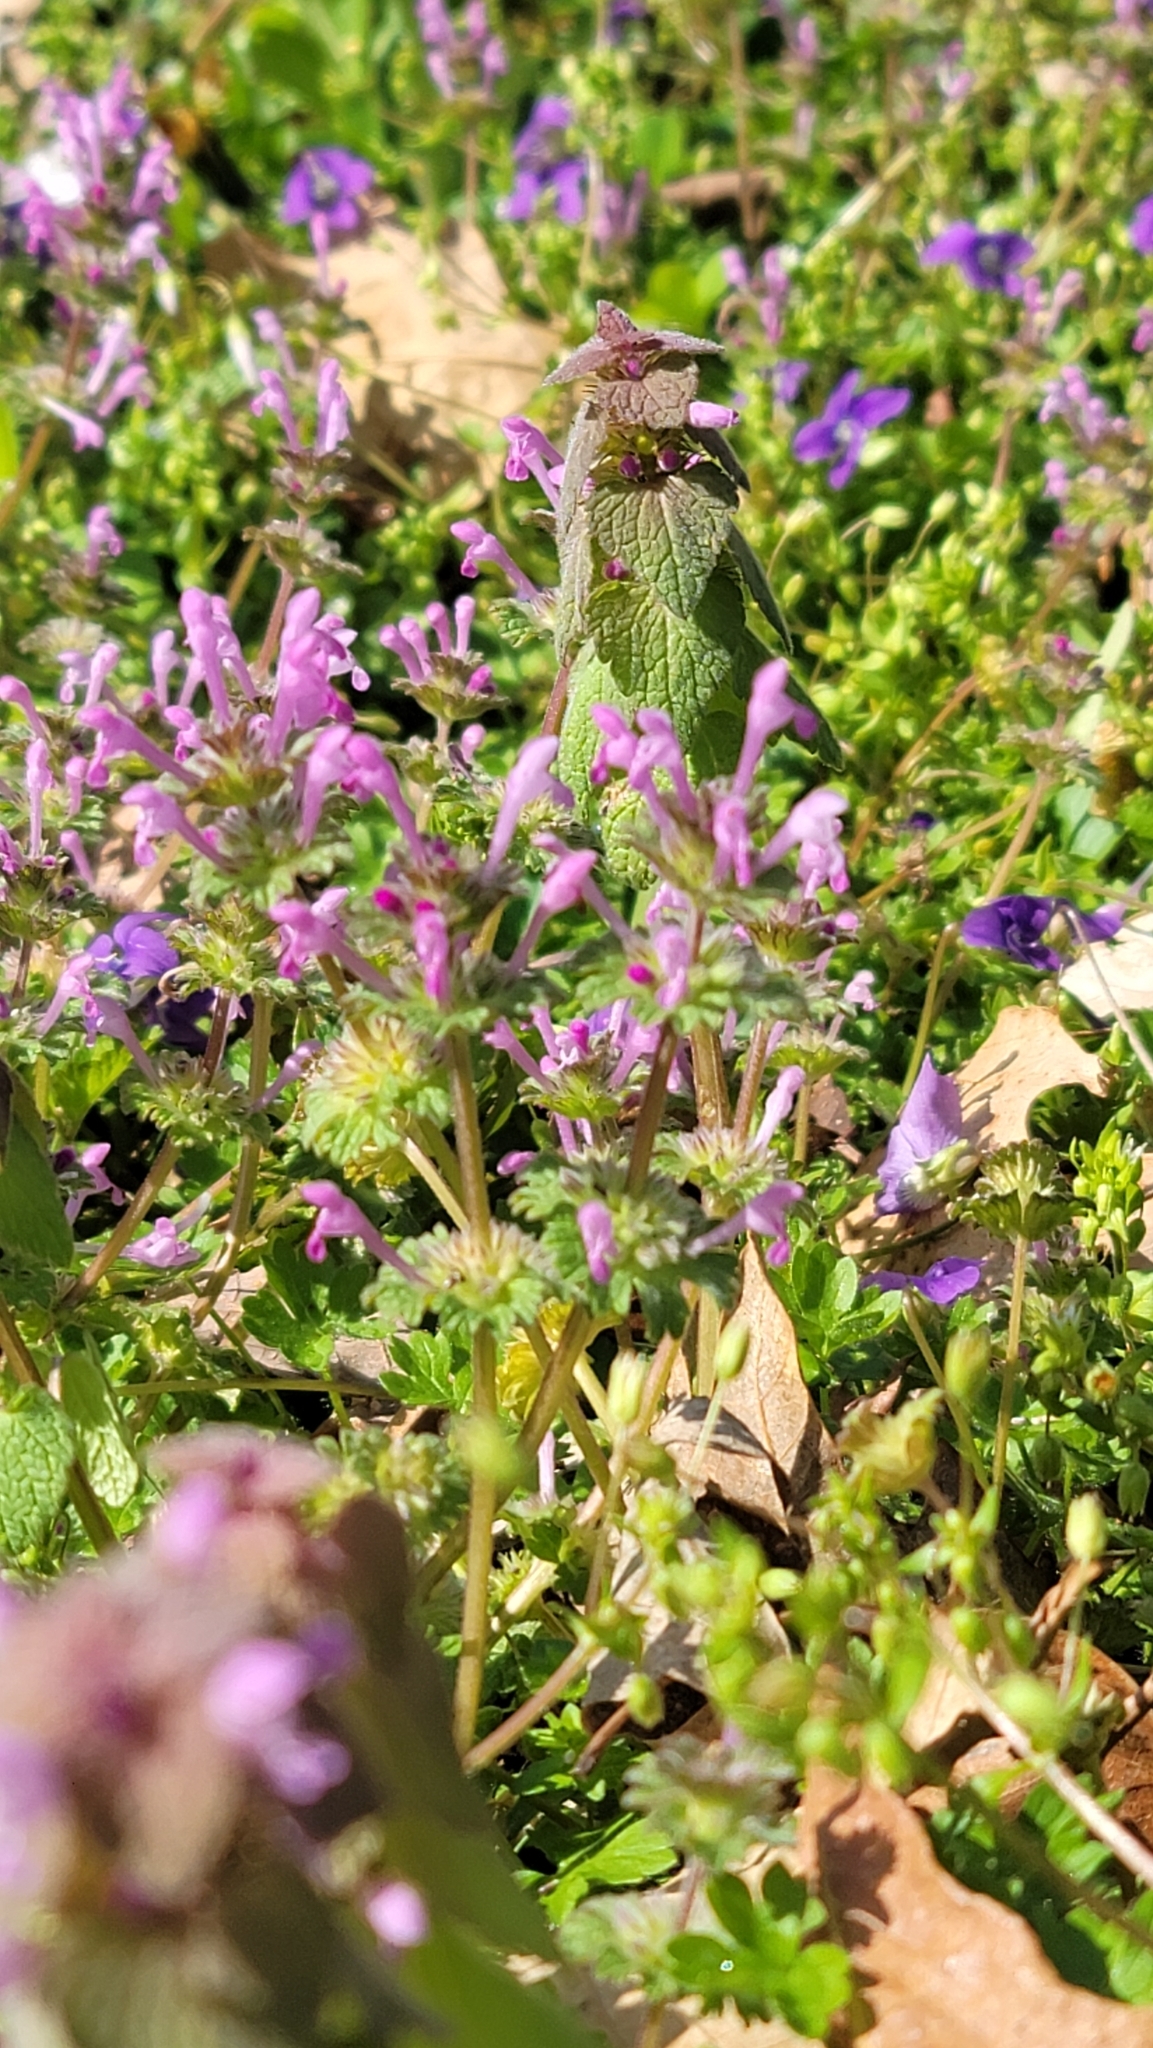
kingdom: Plantae
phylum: Tracheophyta
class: Magnoliopsida
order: Lamiales
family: Lamiaceae
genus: Lamium
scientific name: Lamium amplexicaule
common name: Henbit dead-nettle
